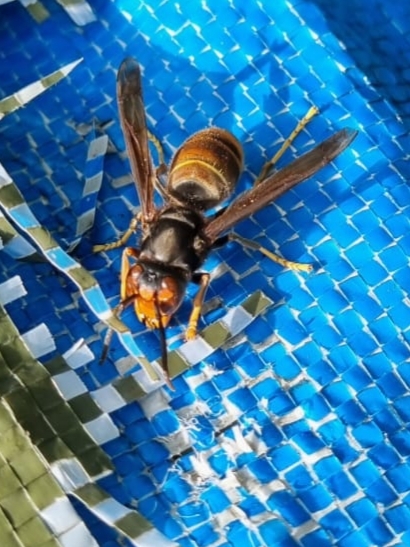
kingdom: Animalia
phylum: Arthropoda
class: Insecta
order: Hymenoptera
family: Vespidae
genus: Vespa
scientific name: Vespa velutina
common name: Asian hornet
